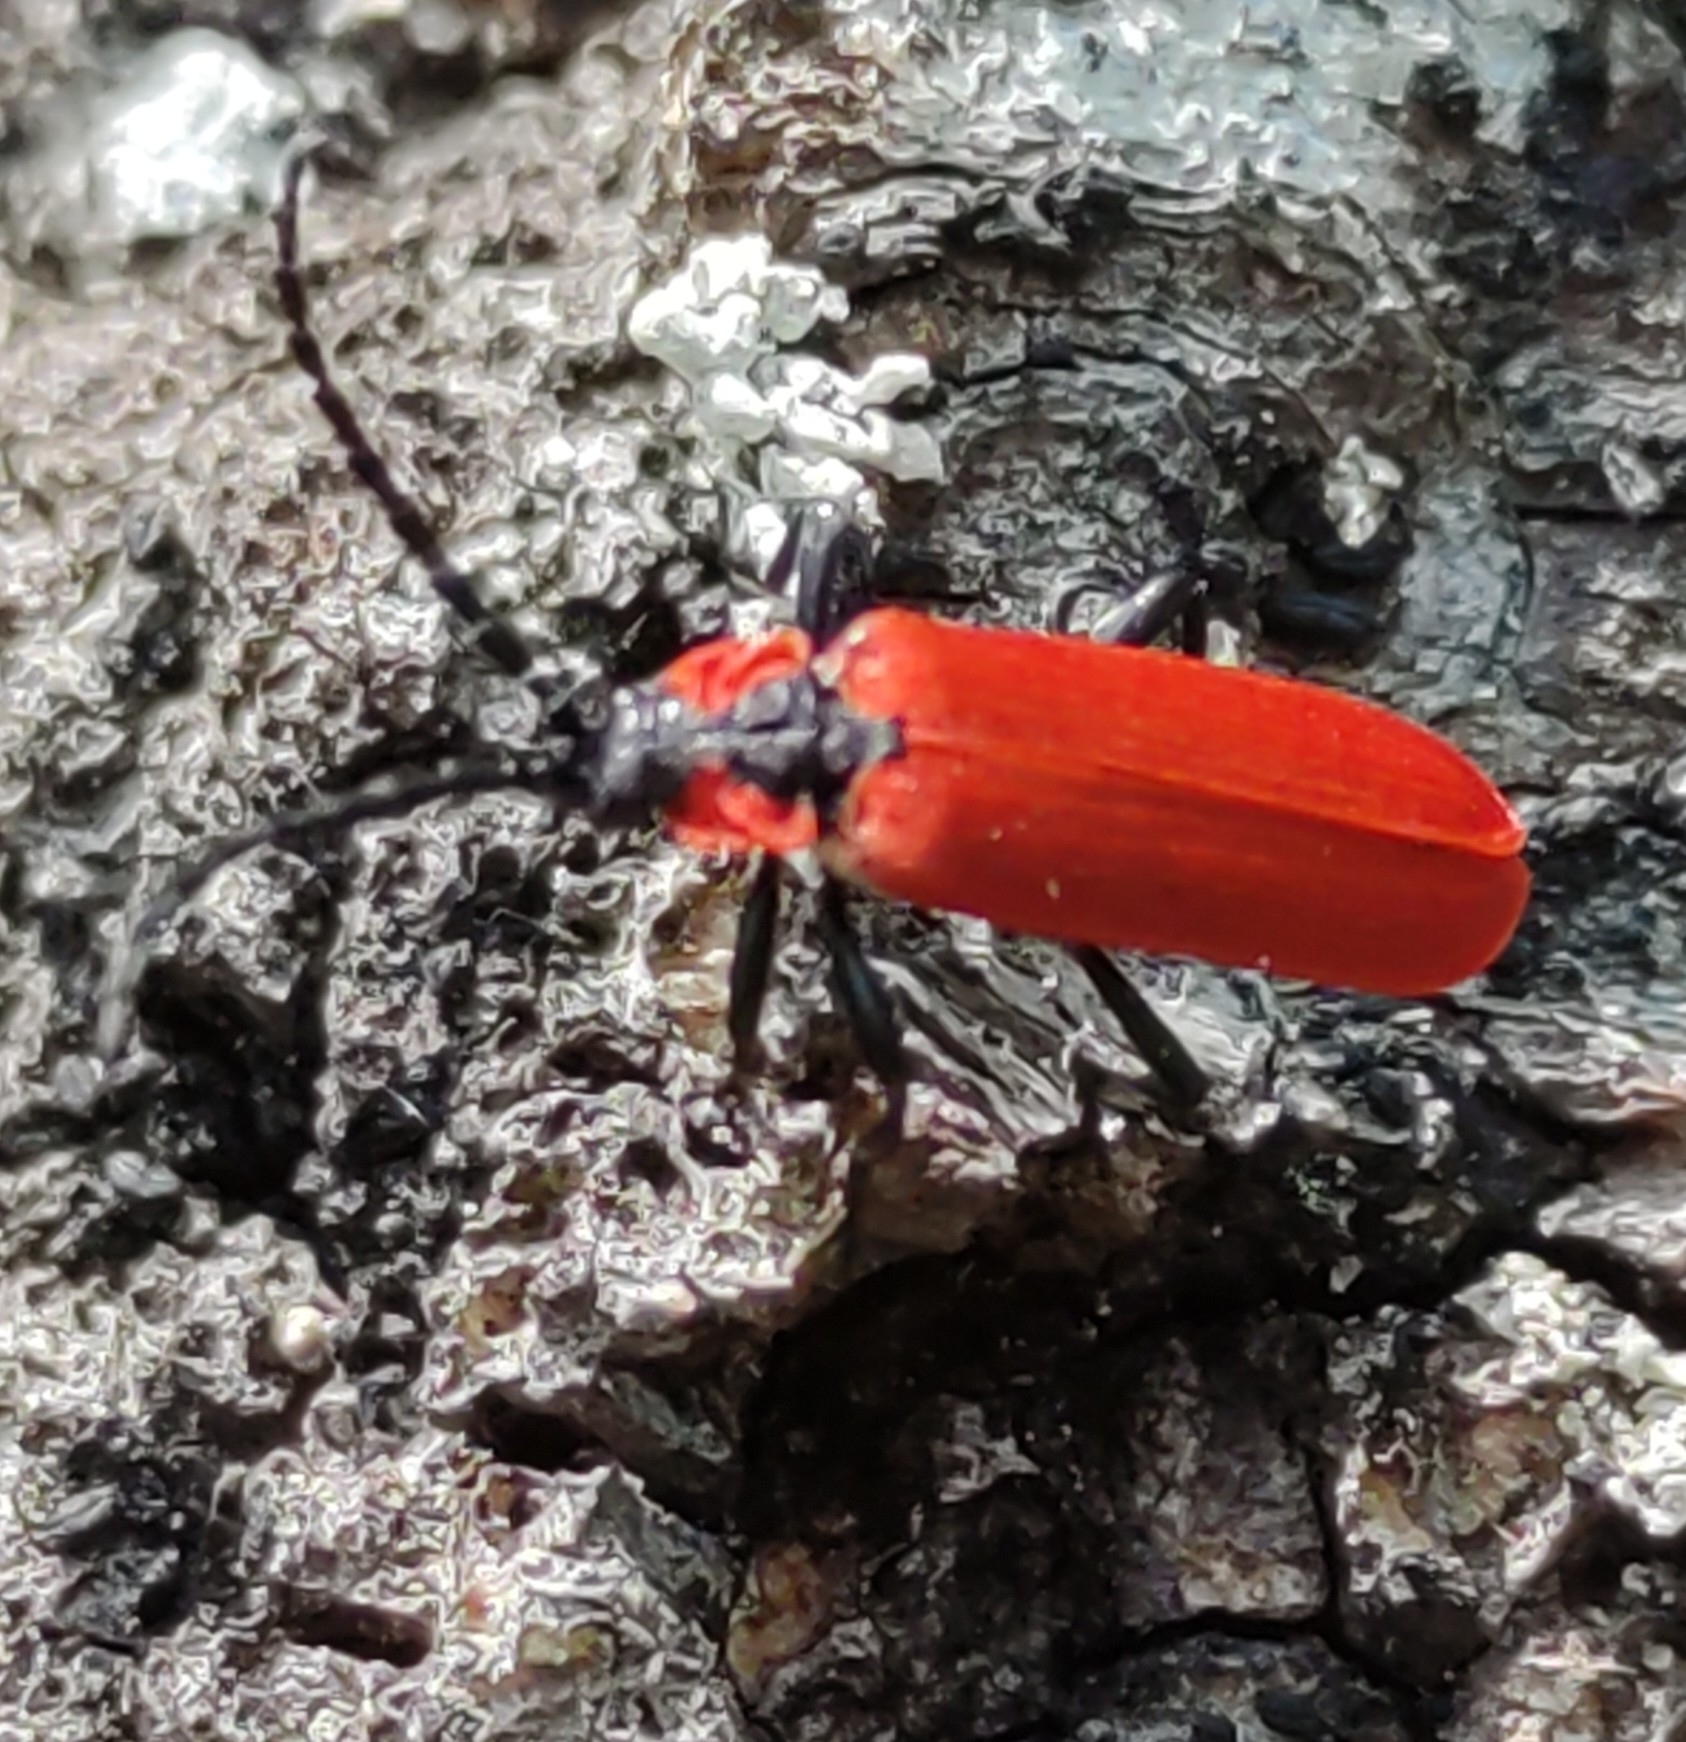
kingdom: Animalia
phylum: Arthropoda
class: Insecta
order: Coleoptera
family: Lycidae
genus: Lygistopterus
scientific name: Lygistopterus sanguineus
